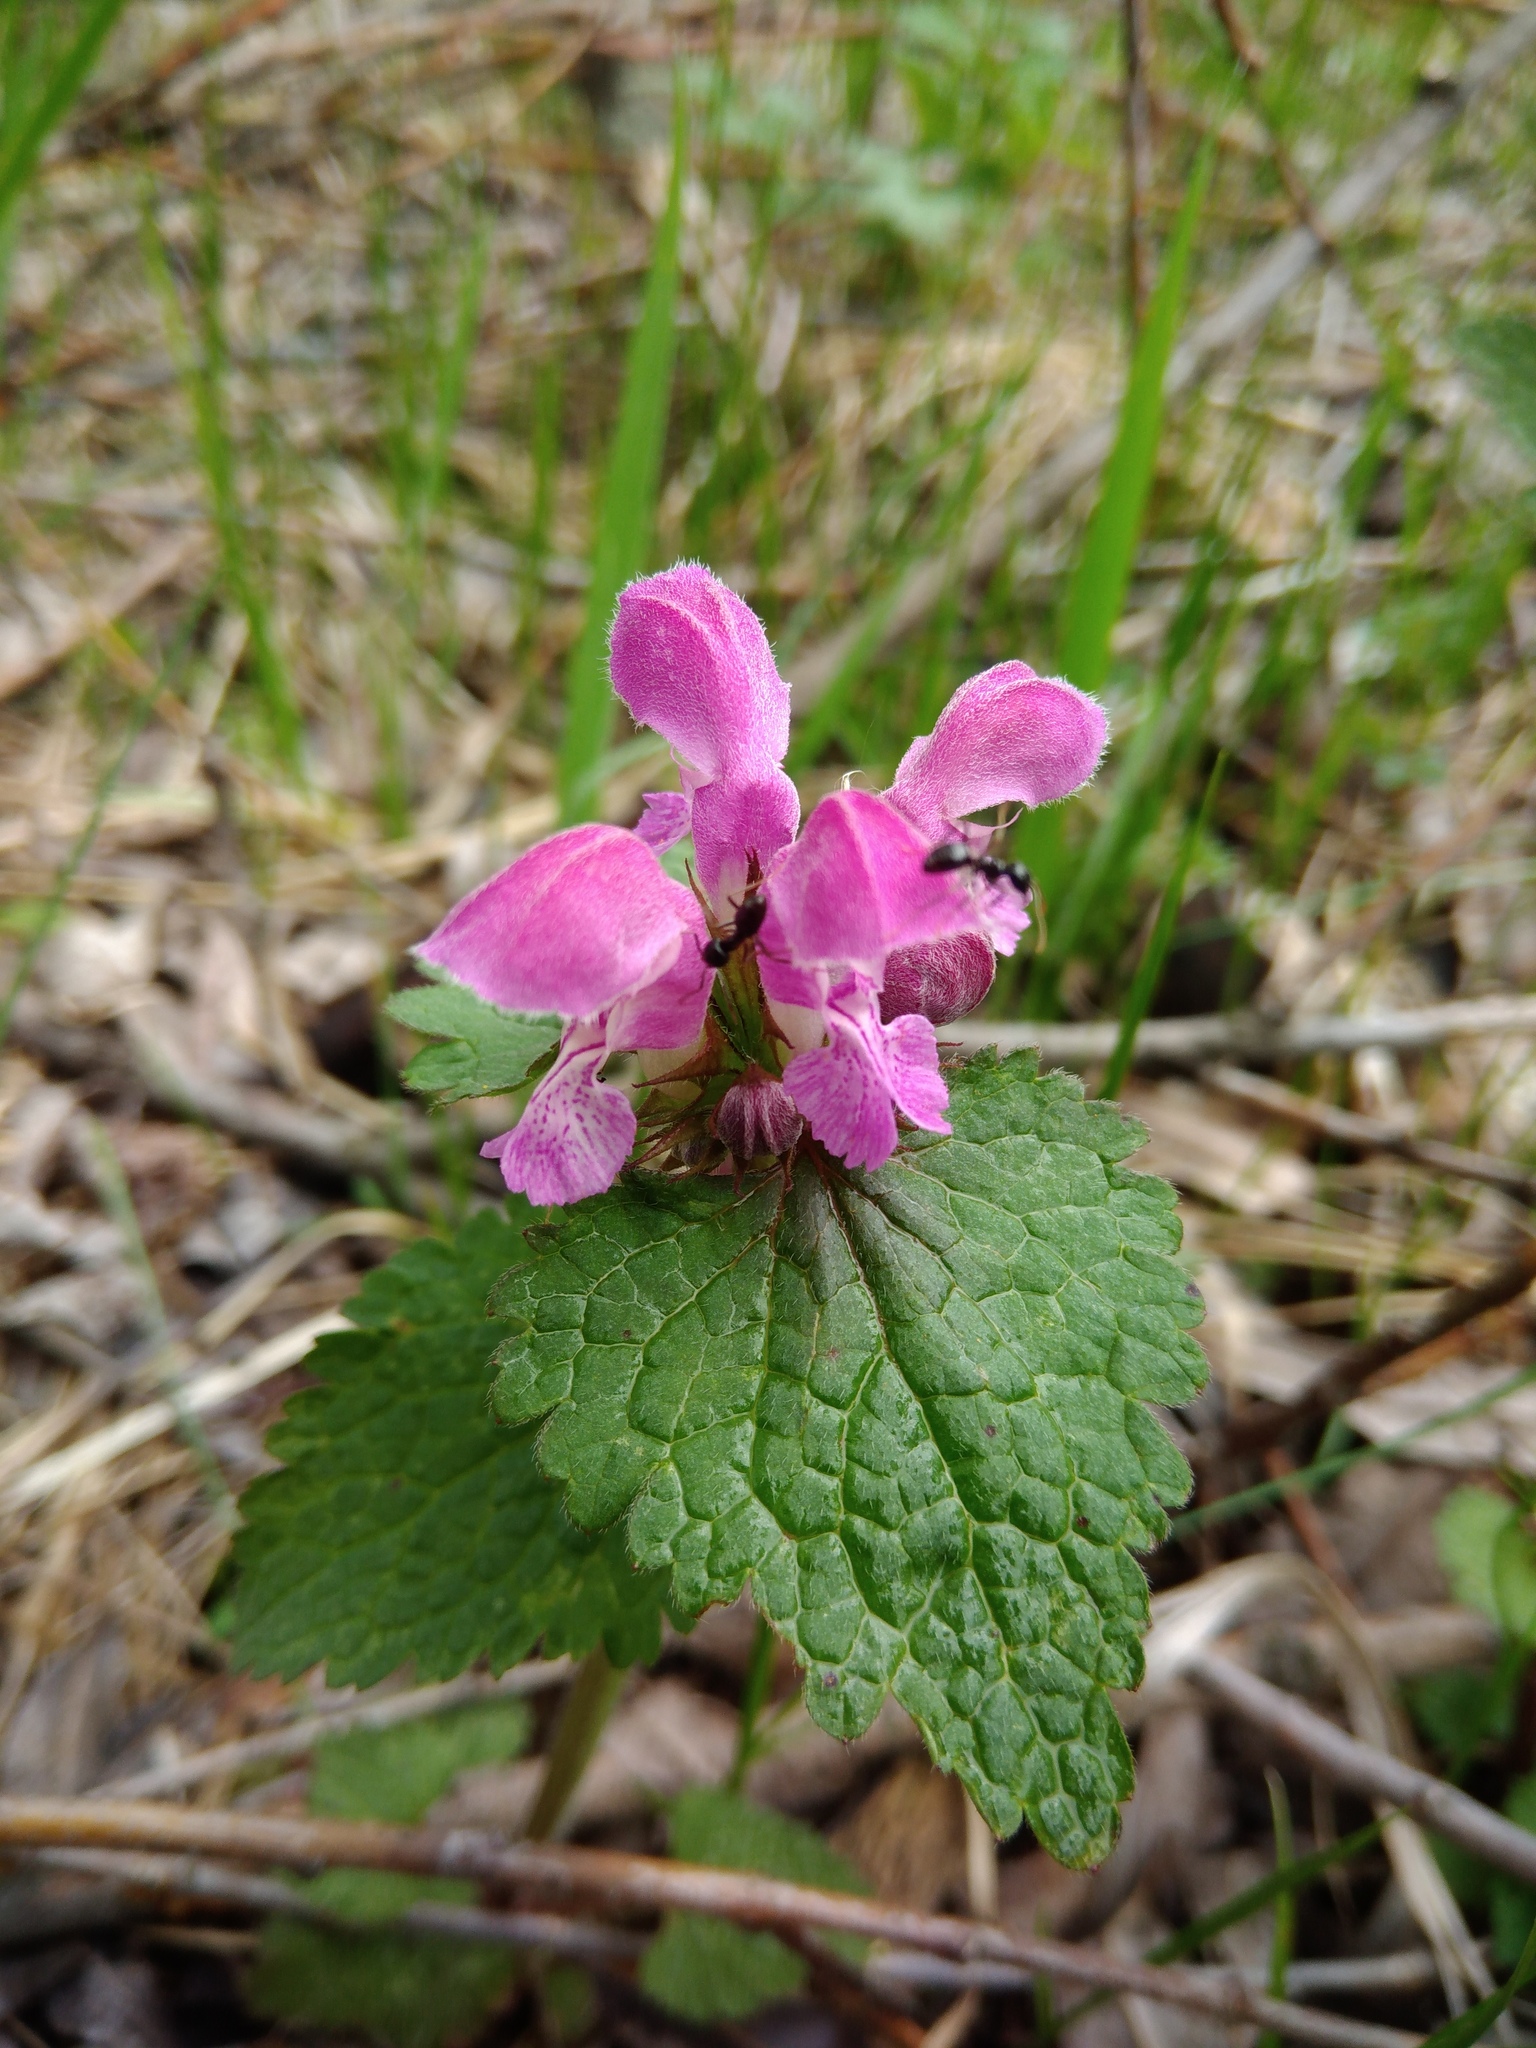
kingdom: Plantae
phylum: Tracheophyta
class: Magnoliopsida
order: Lamiales
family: Lamiaceae
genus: Lamium
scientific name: Lamium maculatum
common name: Spotted dead-nettle
